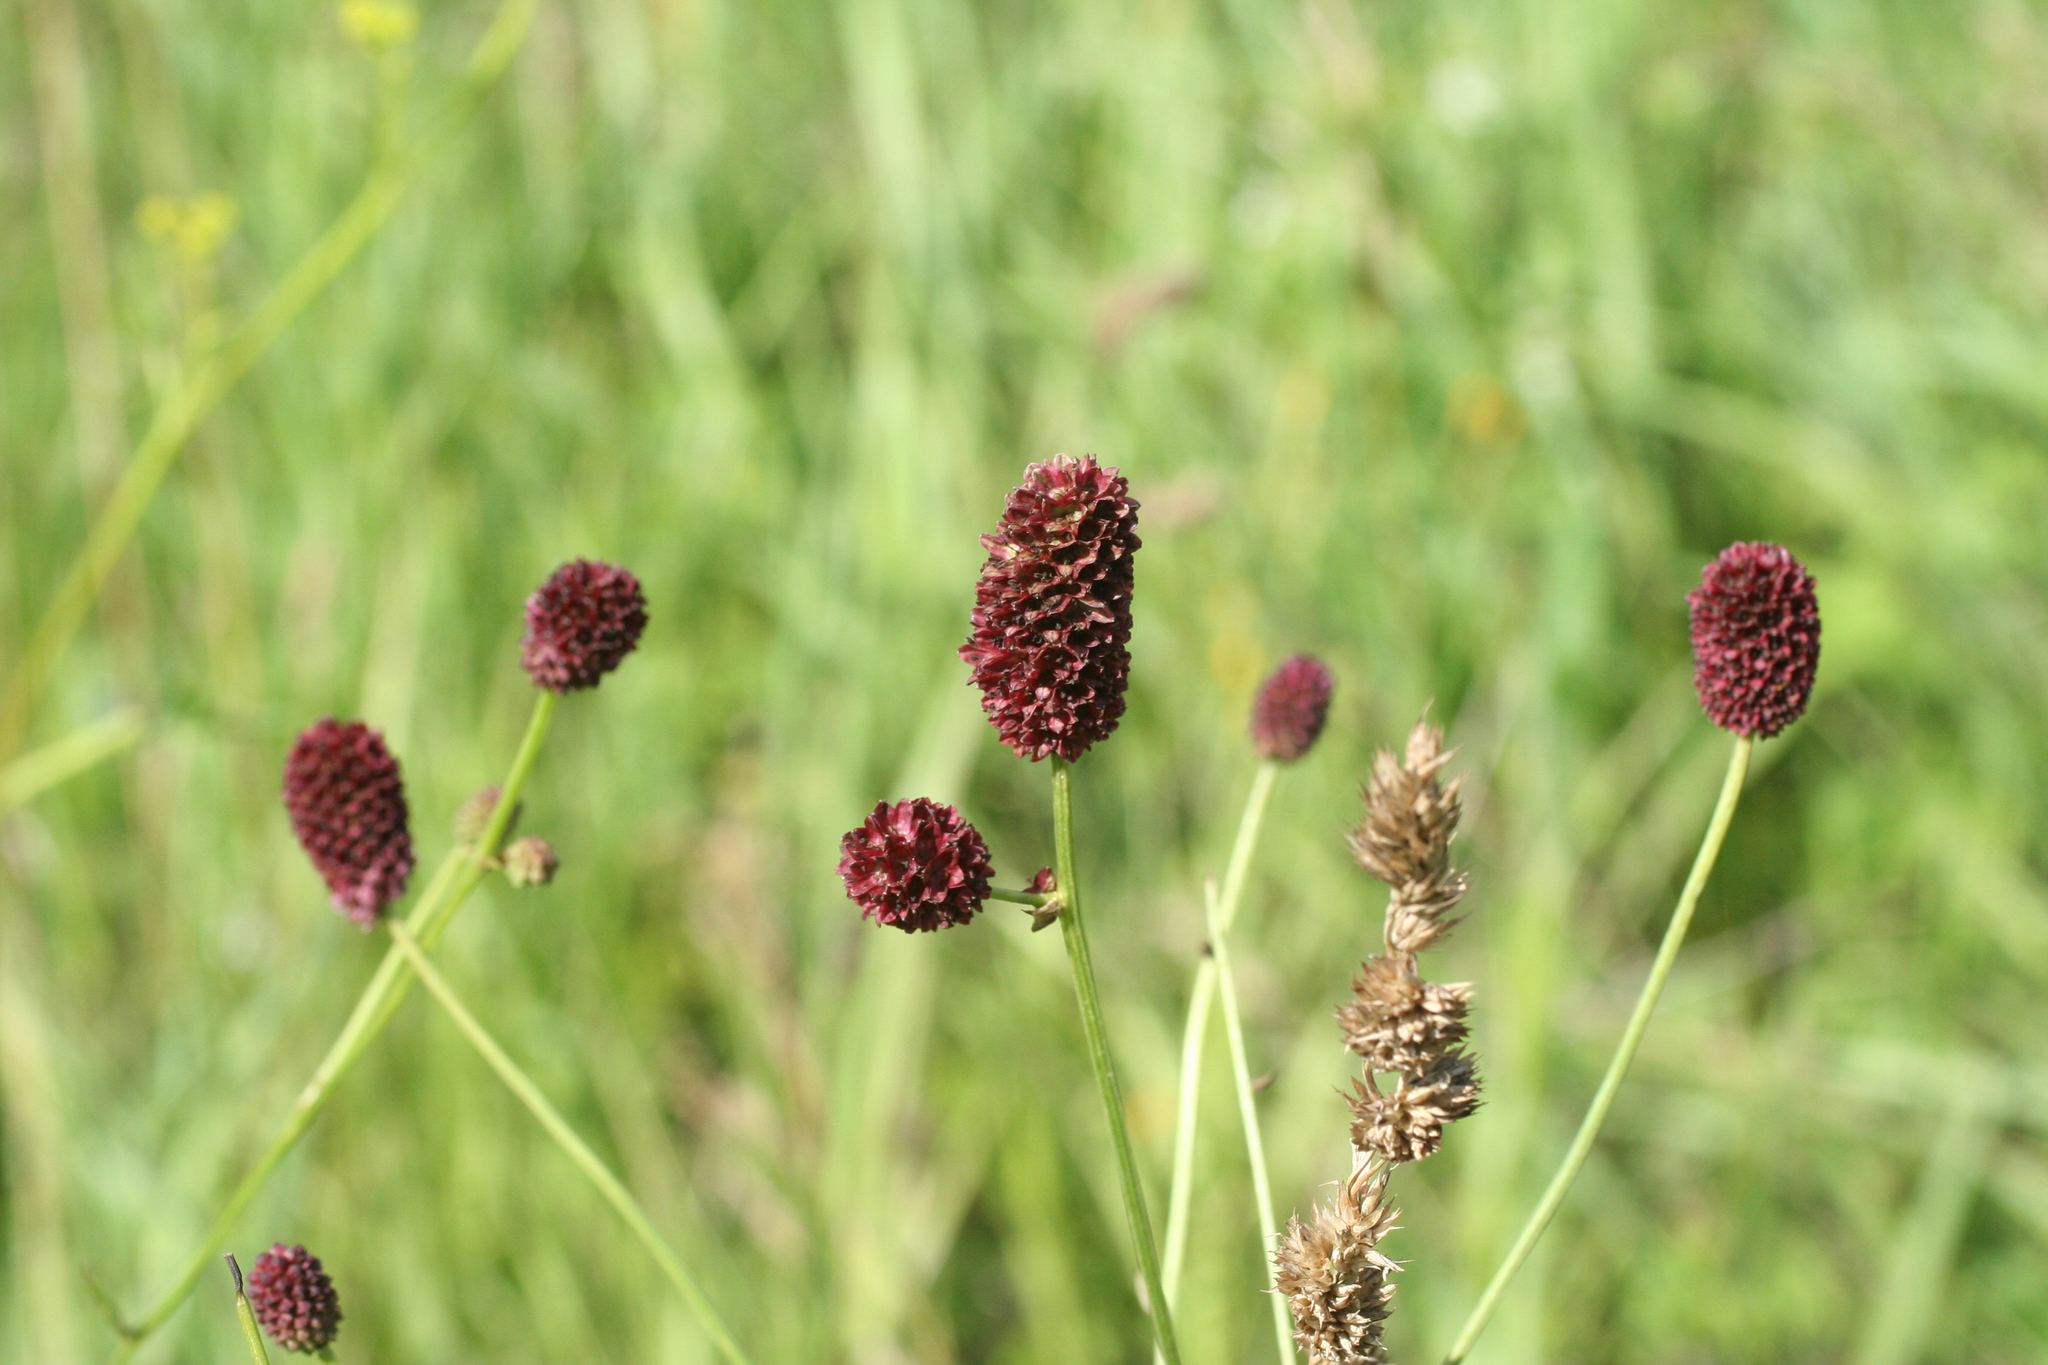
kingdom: Plantae
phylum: Tracheophyta
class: Magnoliopsida
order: Rosales
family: Rosaceae
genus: Sanguisorba
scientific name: Sanguisorba officinalis
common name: Great burnet
